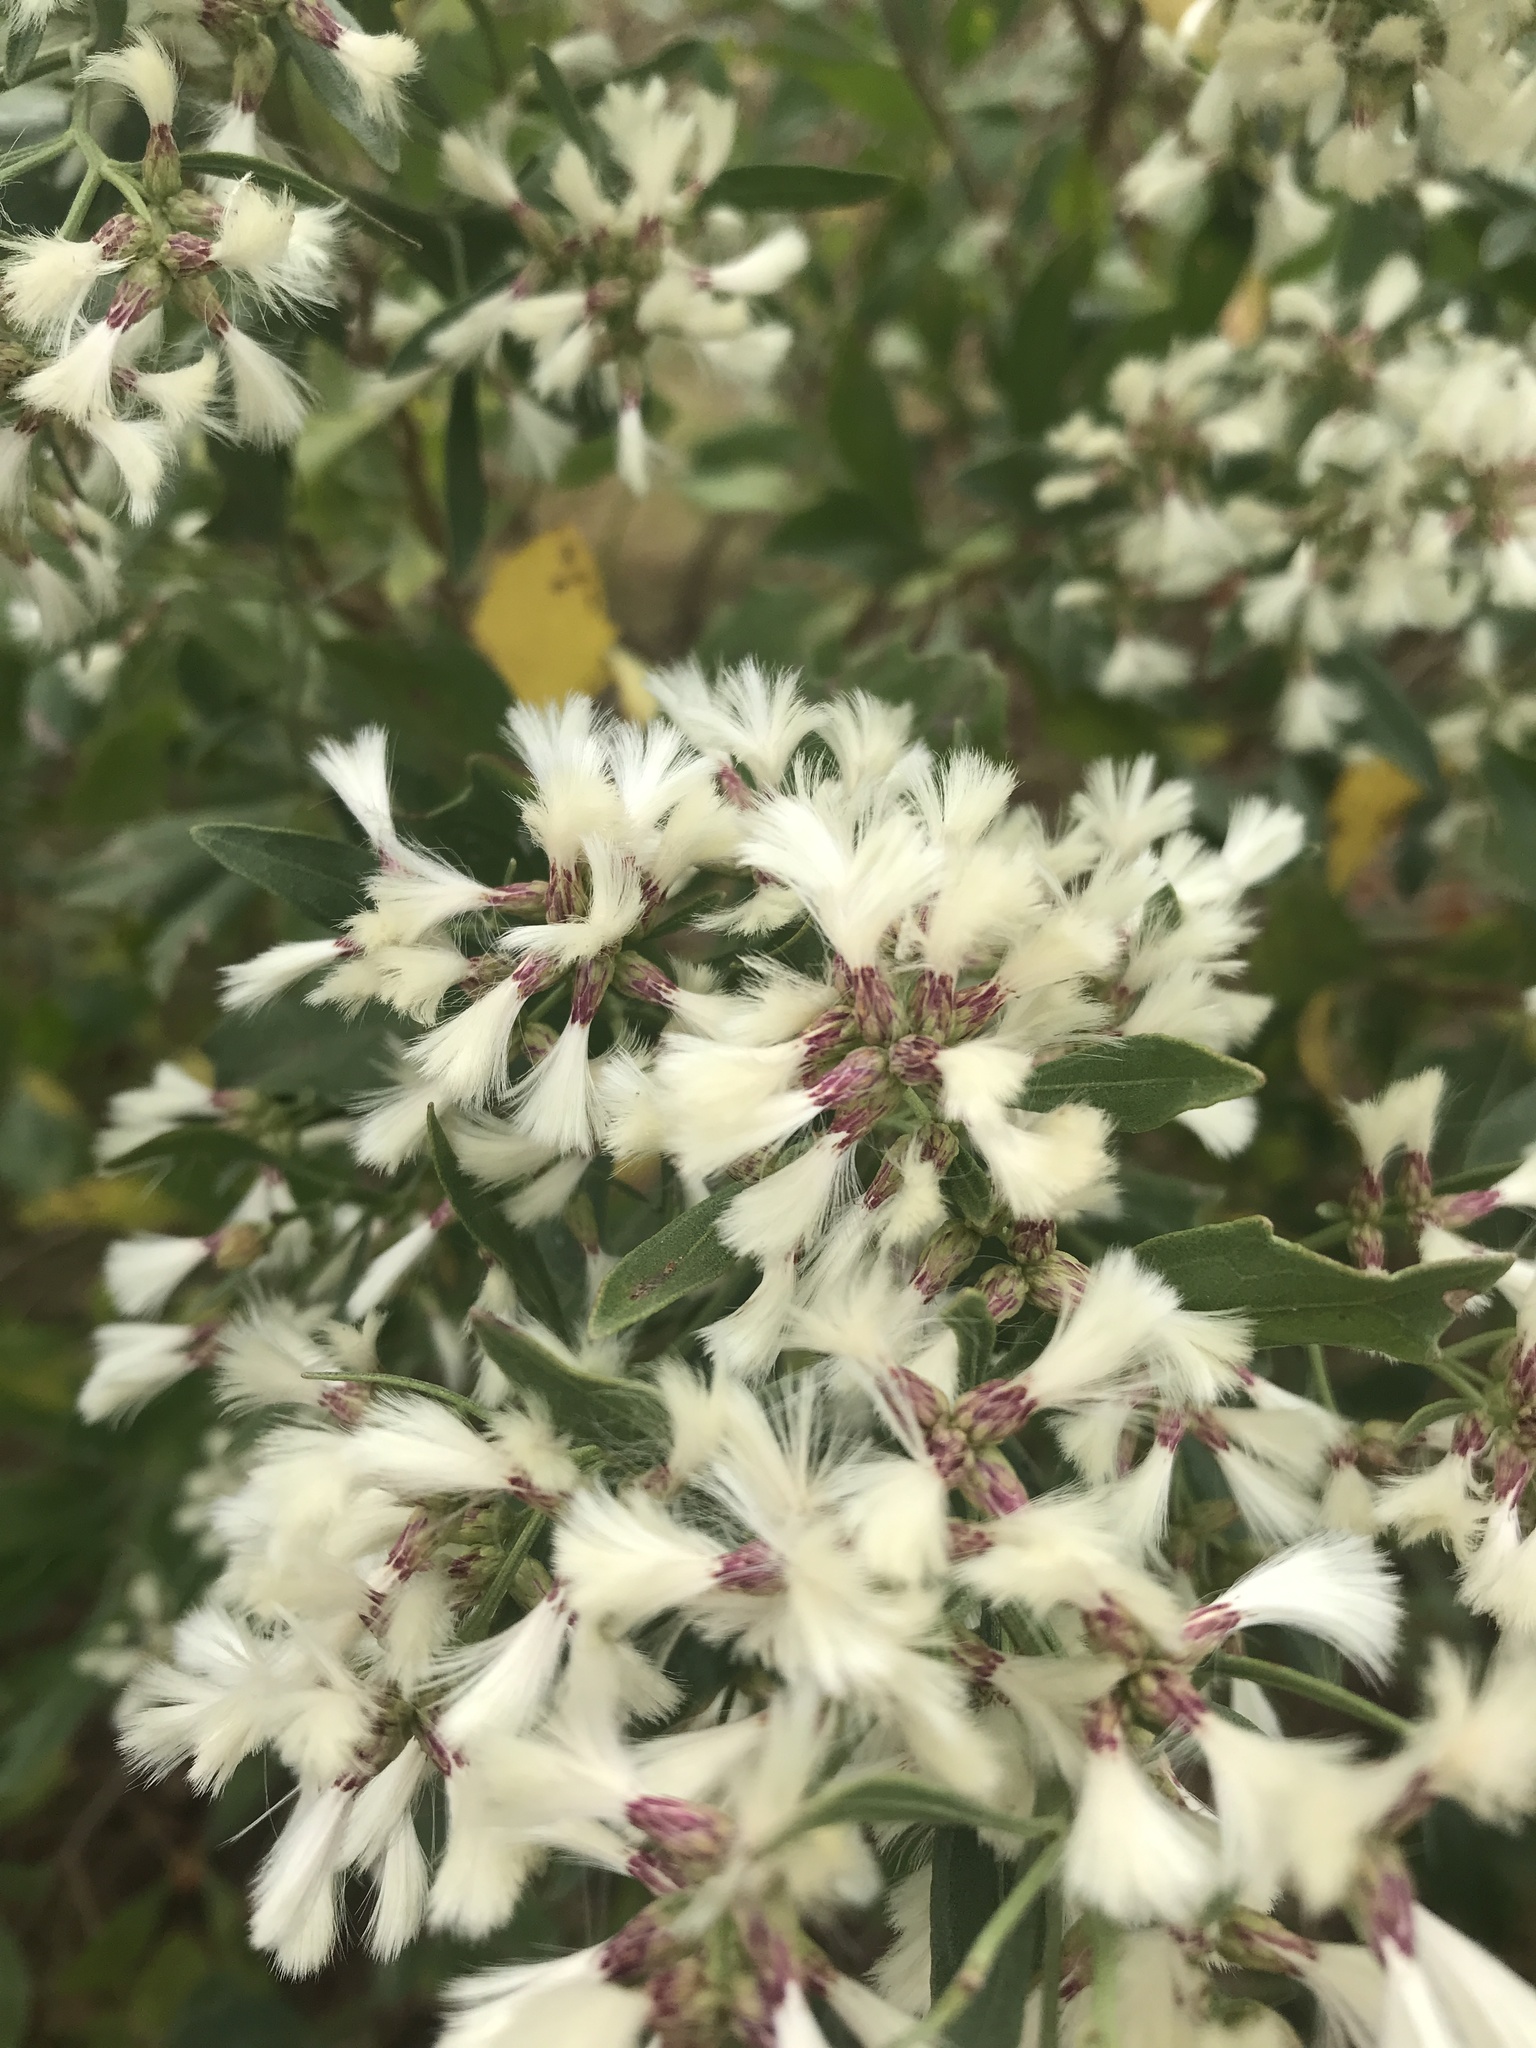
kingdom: Plantae
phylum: Tracheophyta
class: Magnoliopsida
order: Asterales
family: Asteraceae
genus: Baccharis
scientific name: Baccharis halimifolia
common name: Eastern baccharis
